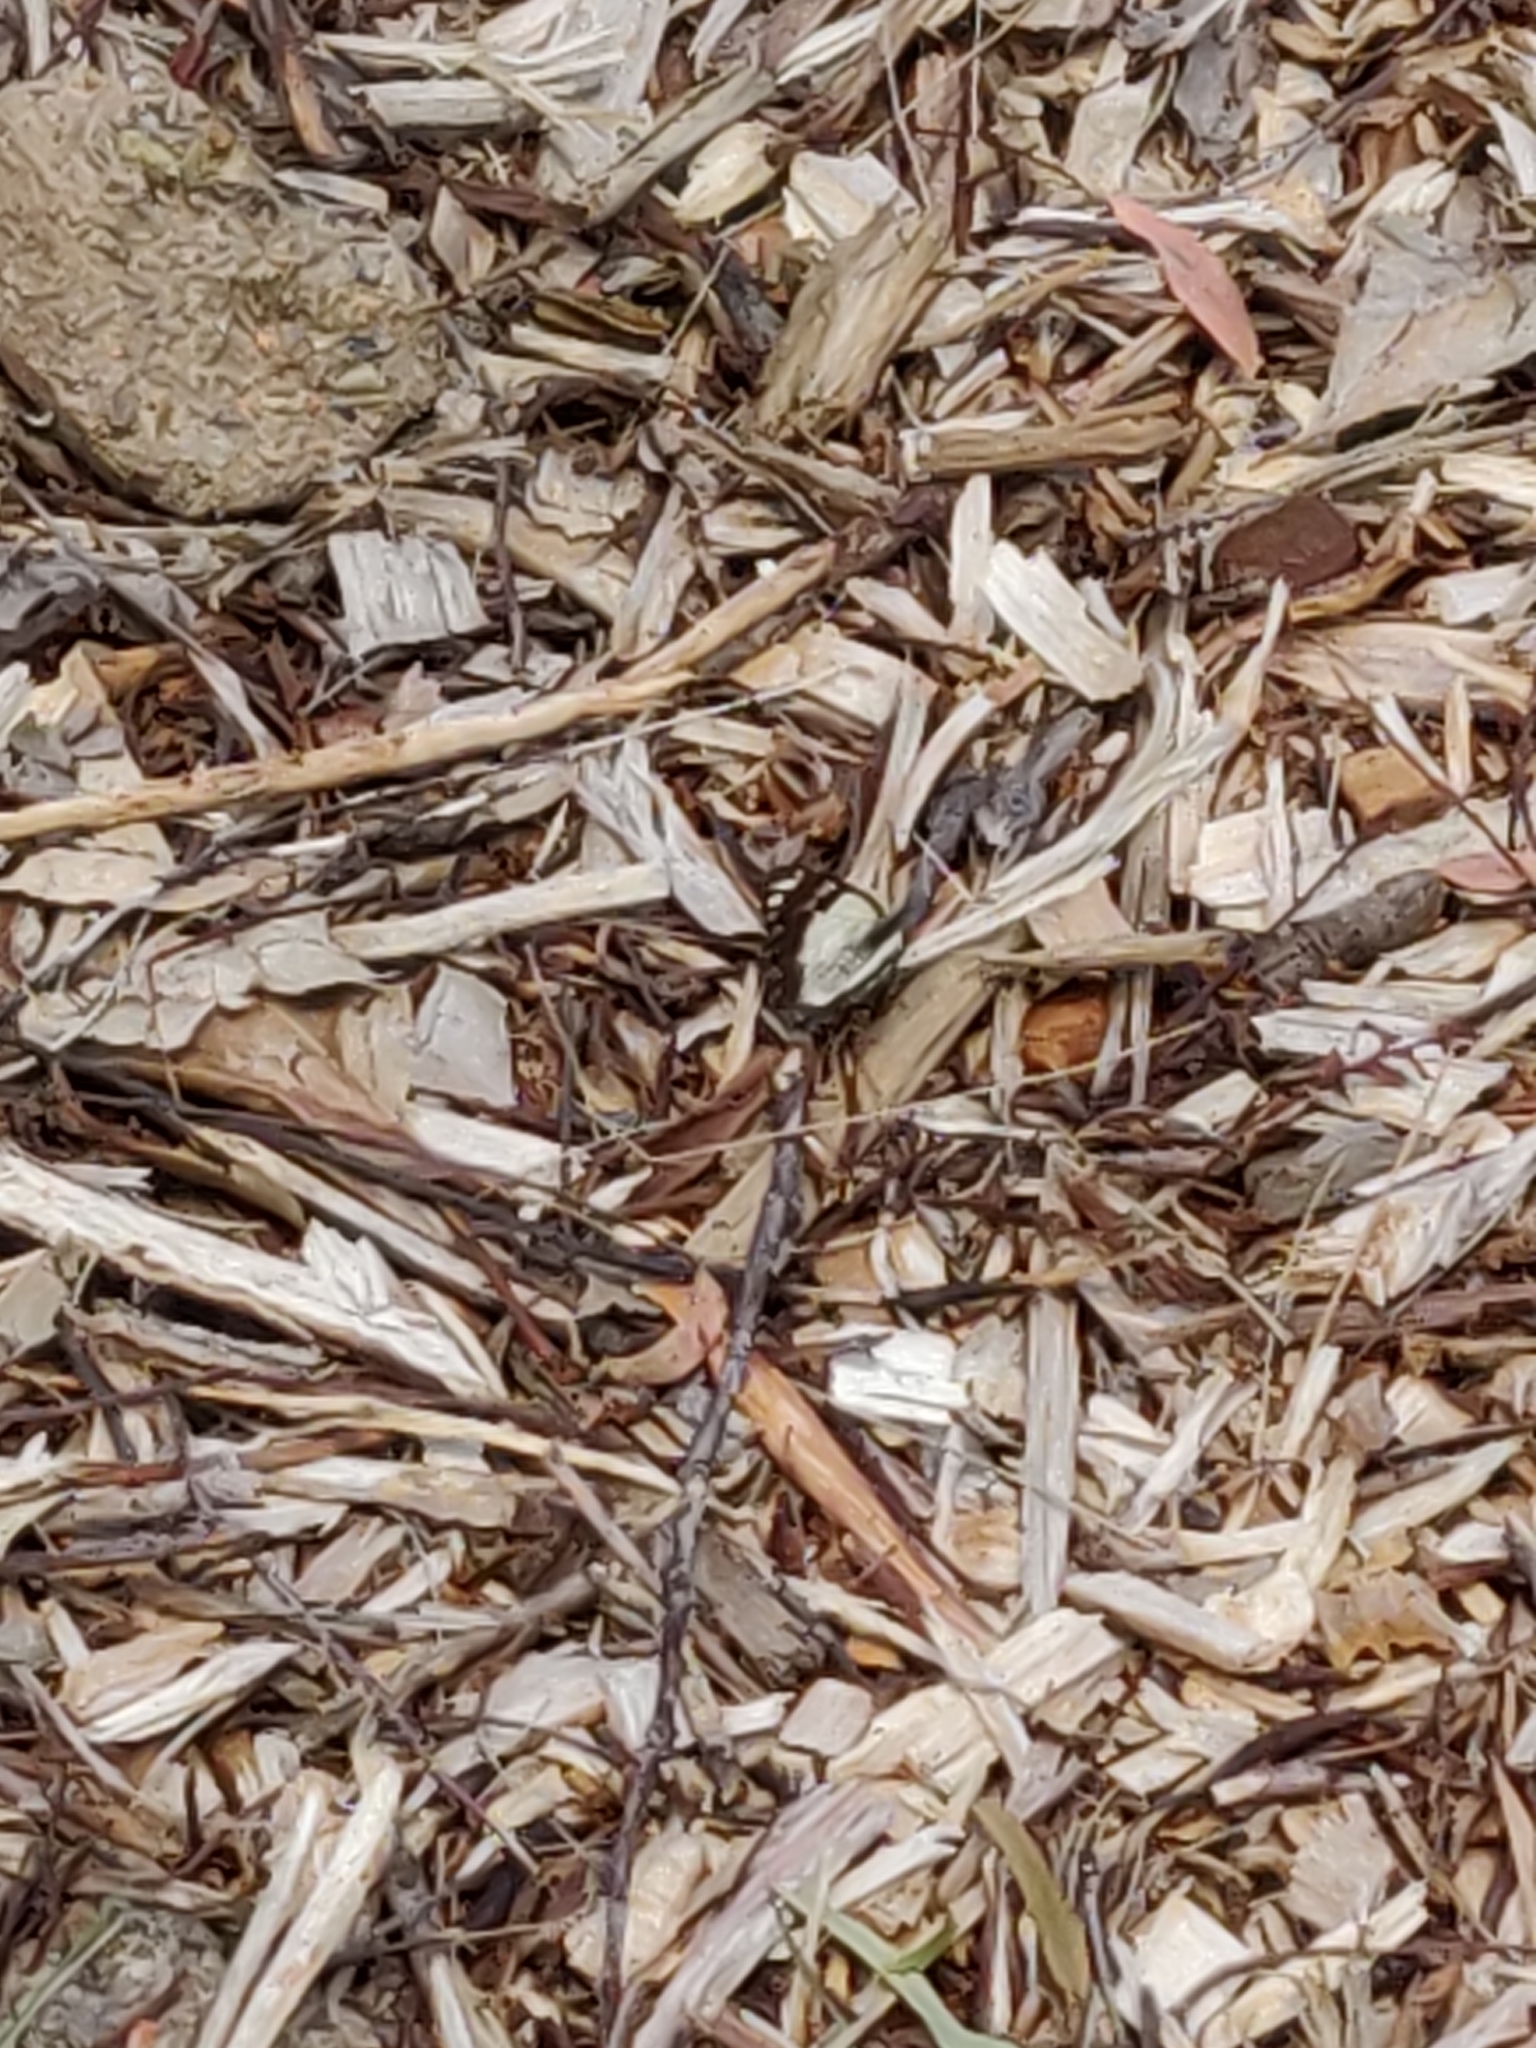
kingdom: Animalia
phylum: Arthropoda
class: Insecta
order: Lepidoptera
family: Pieridae
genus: Belenois
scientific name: Belenois java
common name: Caper white
